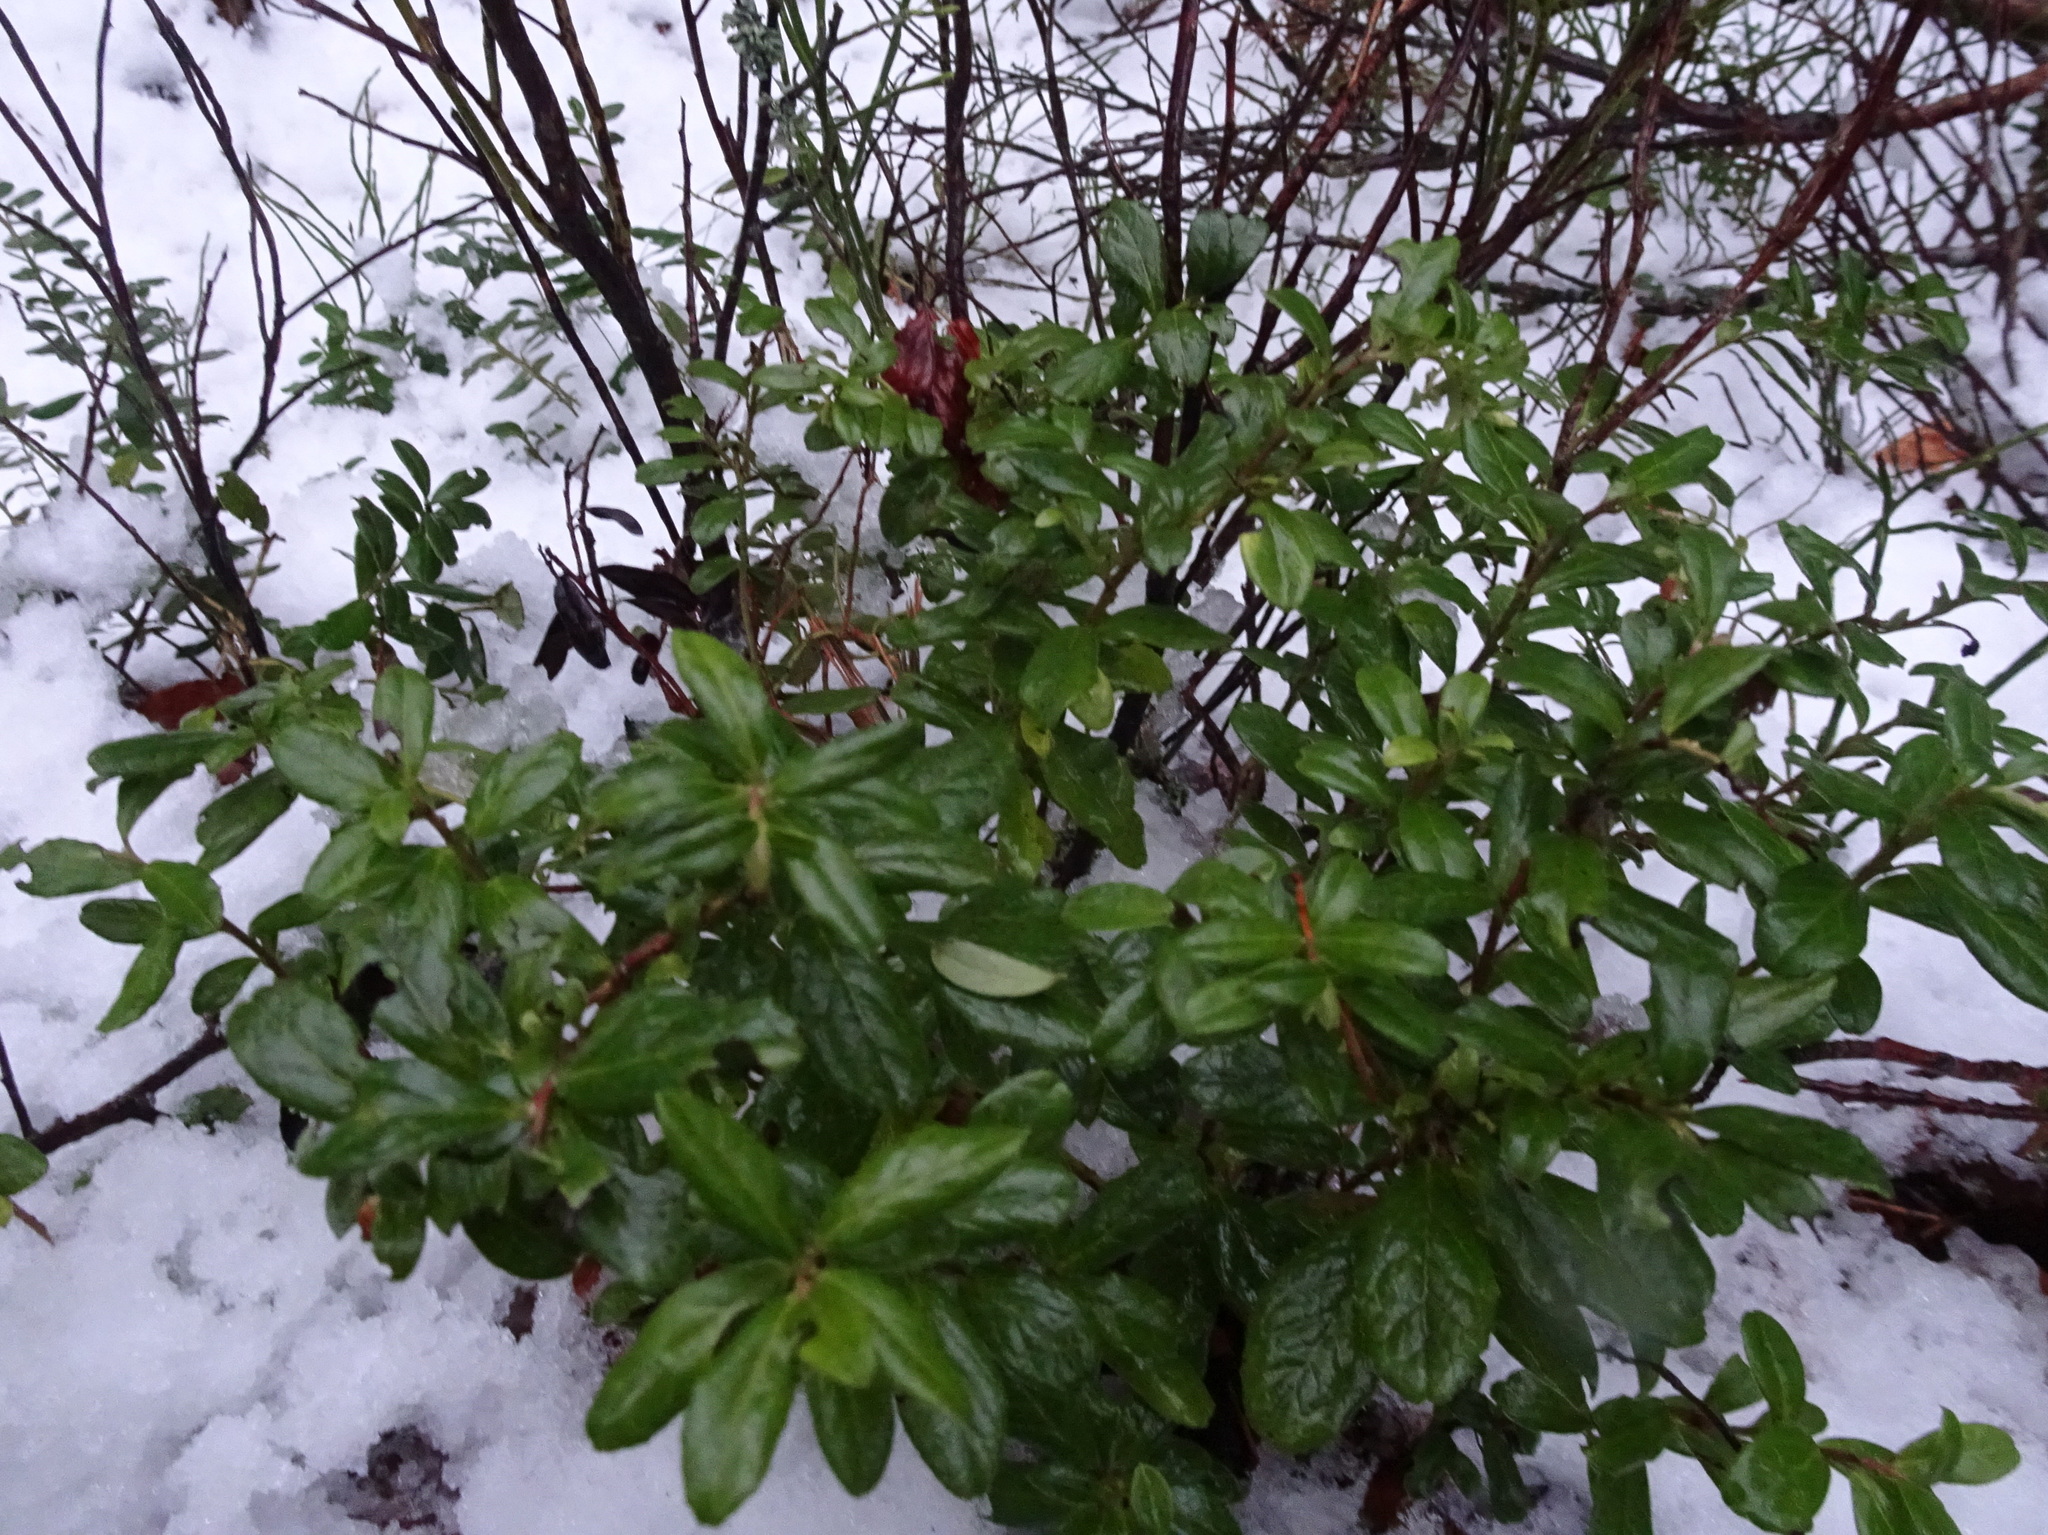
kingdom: Plantae
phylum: Tracheophyta
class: Magnoliopsida
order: Ericales
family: Ericaceae
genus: Vaccinium
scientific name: Vaccinium vitis-idaea
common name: Cowberry
